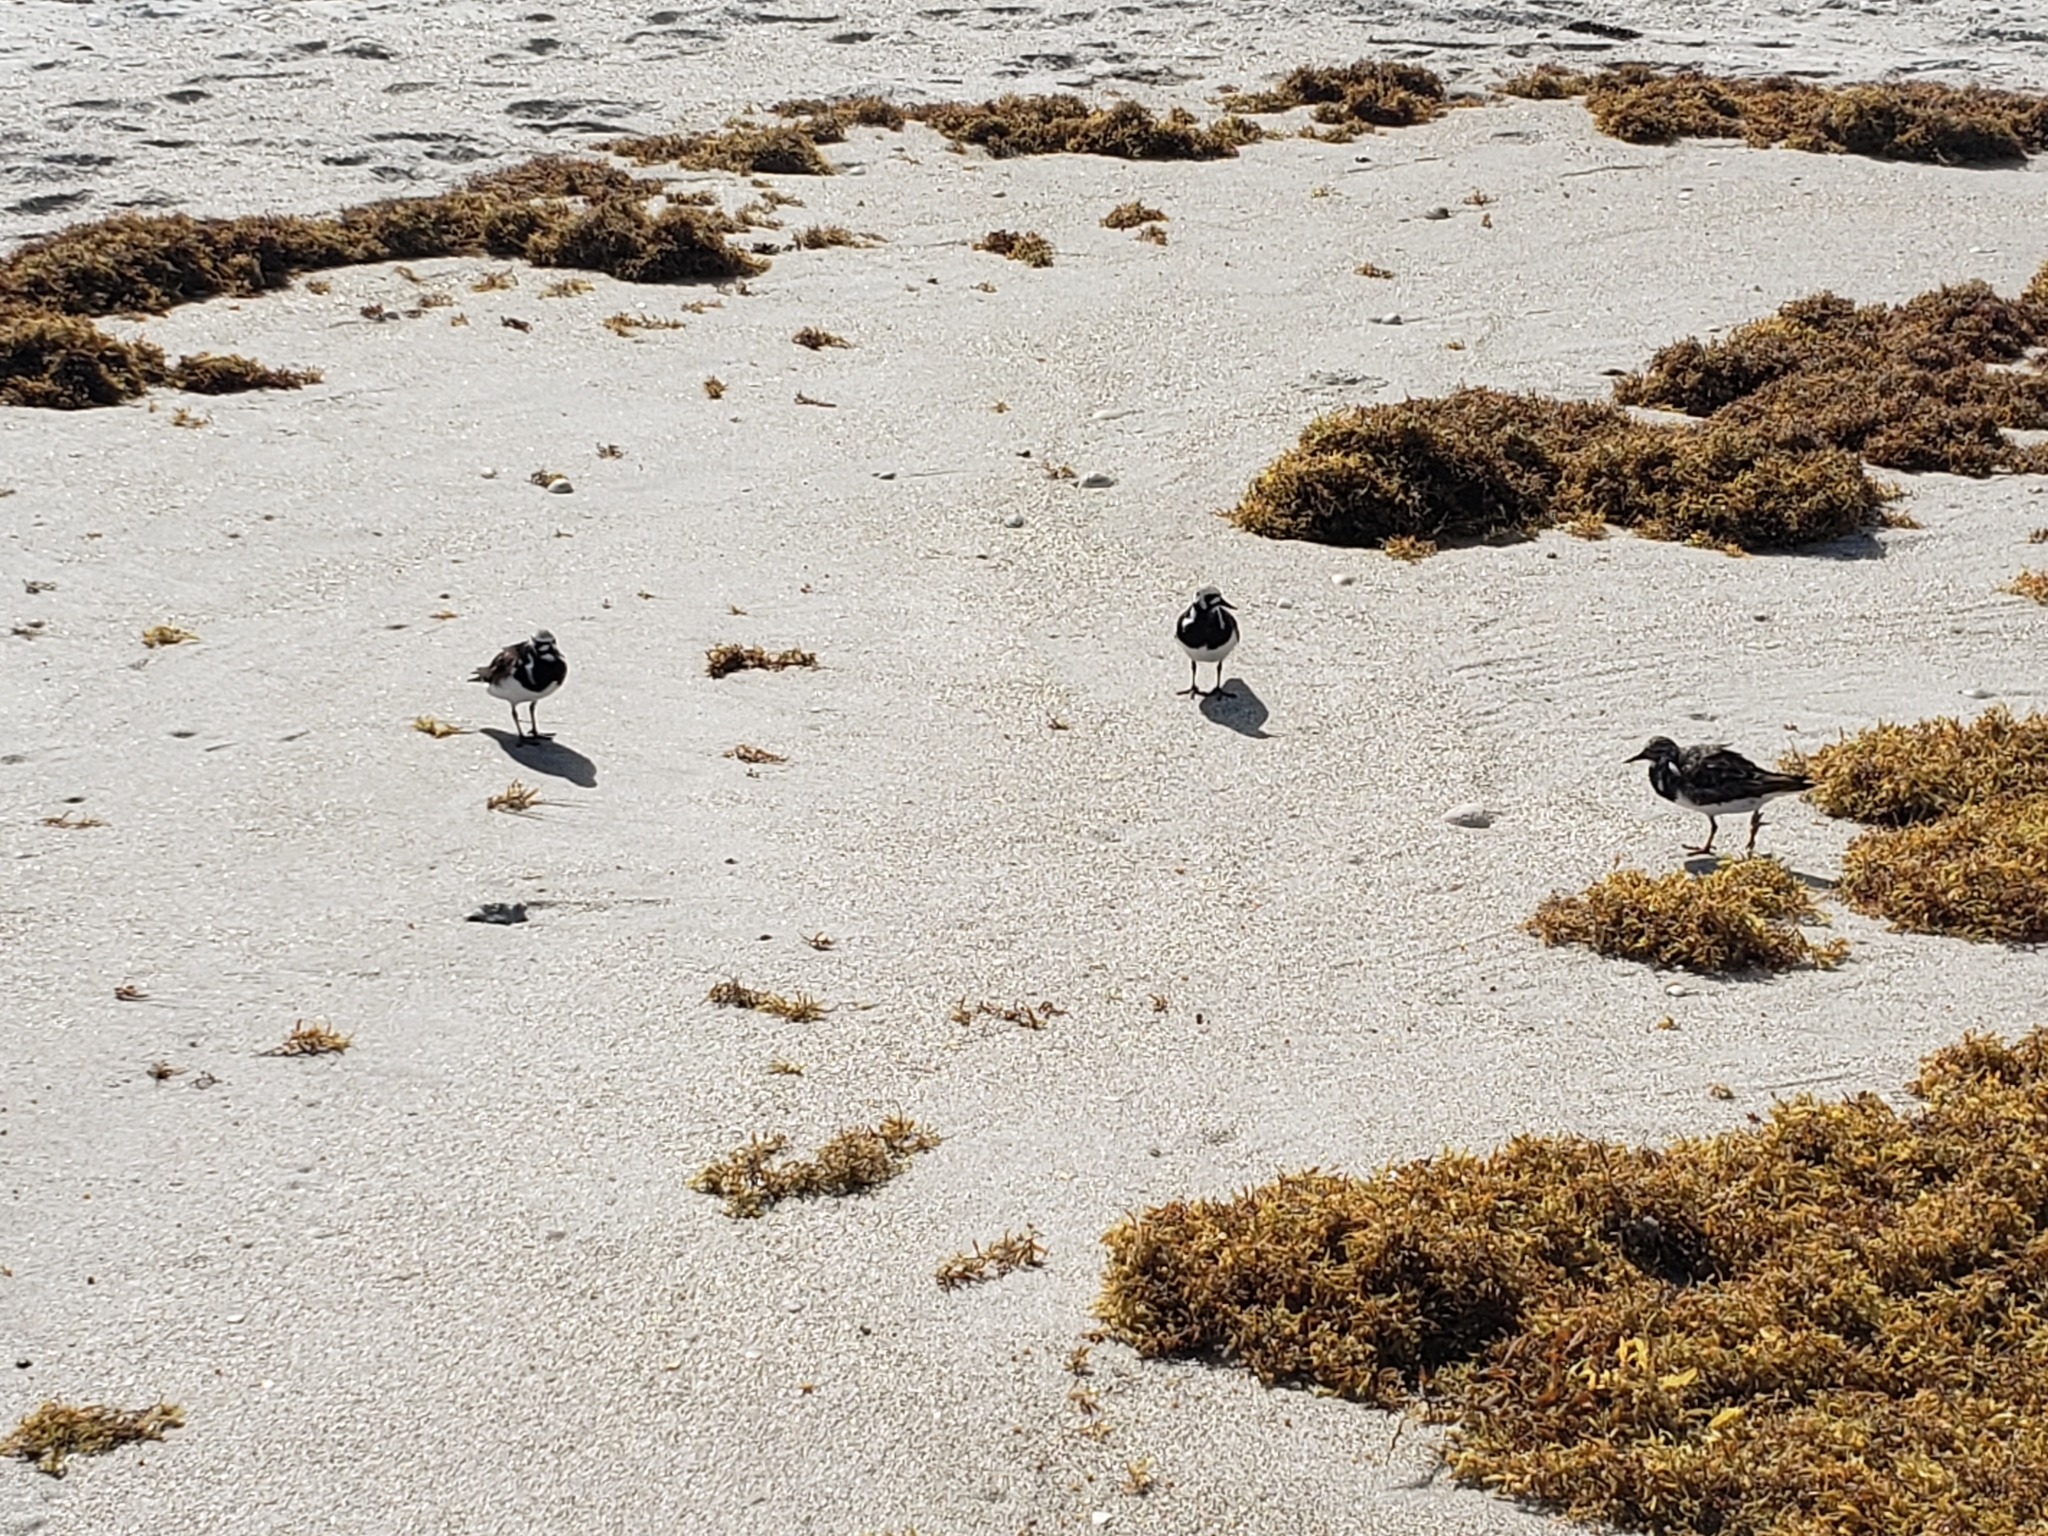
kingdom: Animalia
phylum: Chordata
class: Aves
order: Charadriiformes
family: Scolopacidae
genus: Arenaria
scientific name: Arenaria interpres
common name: Ruddy turnstone
